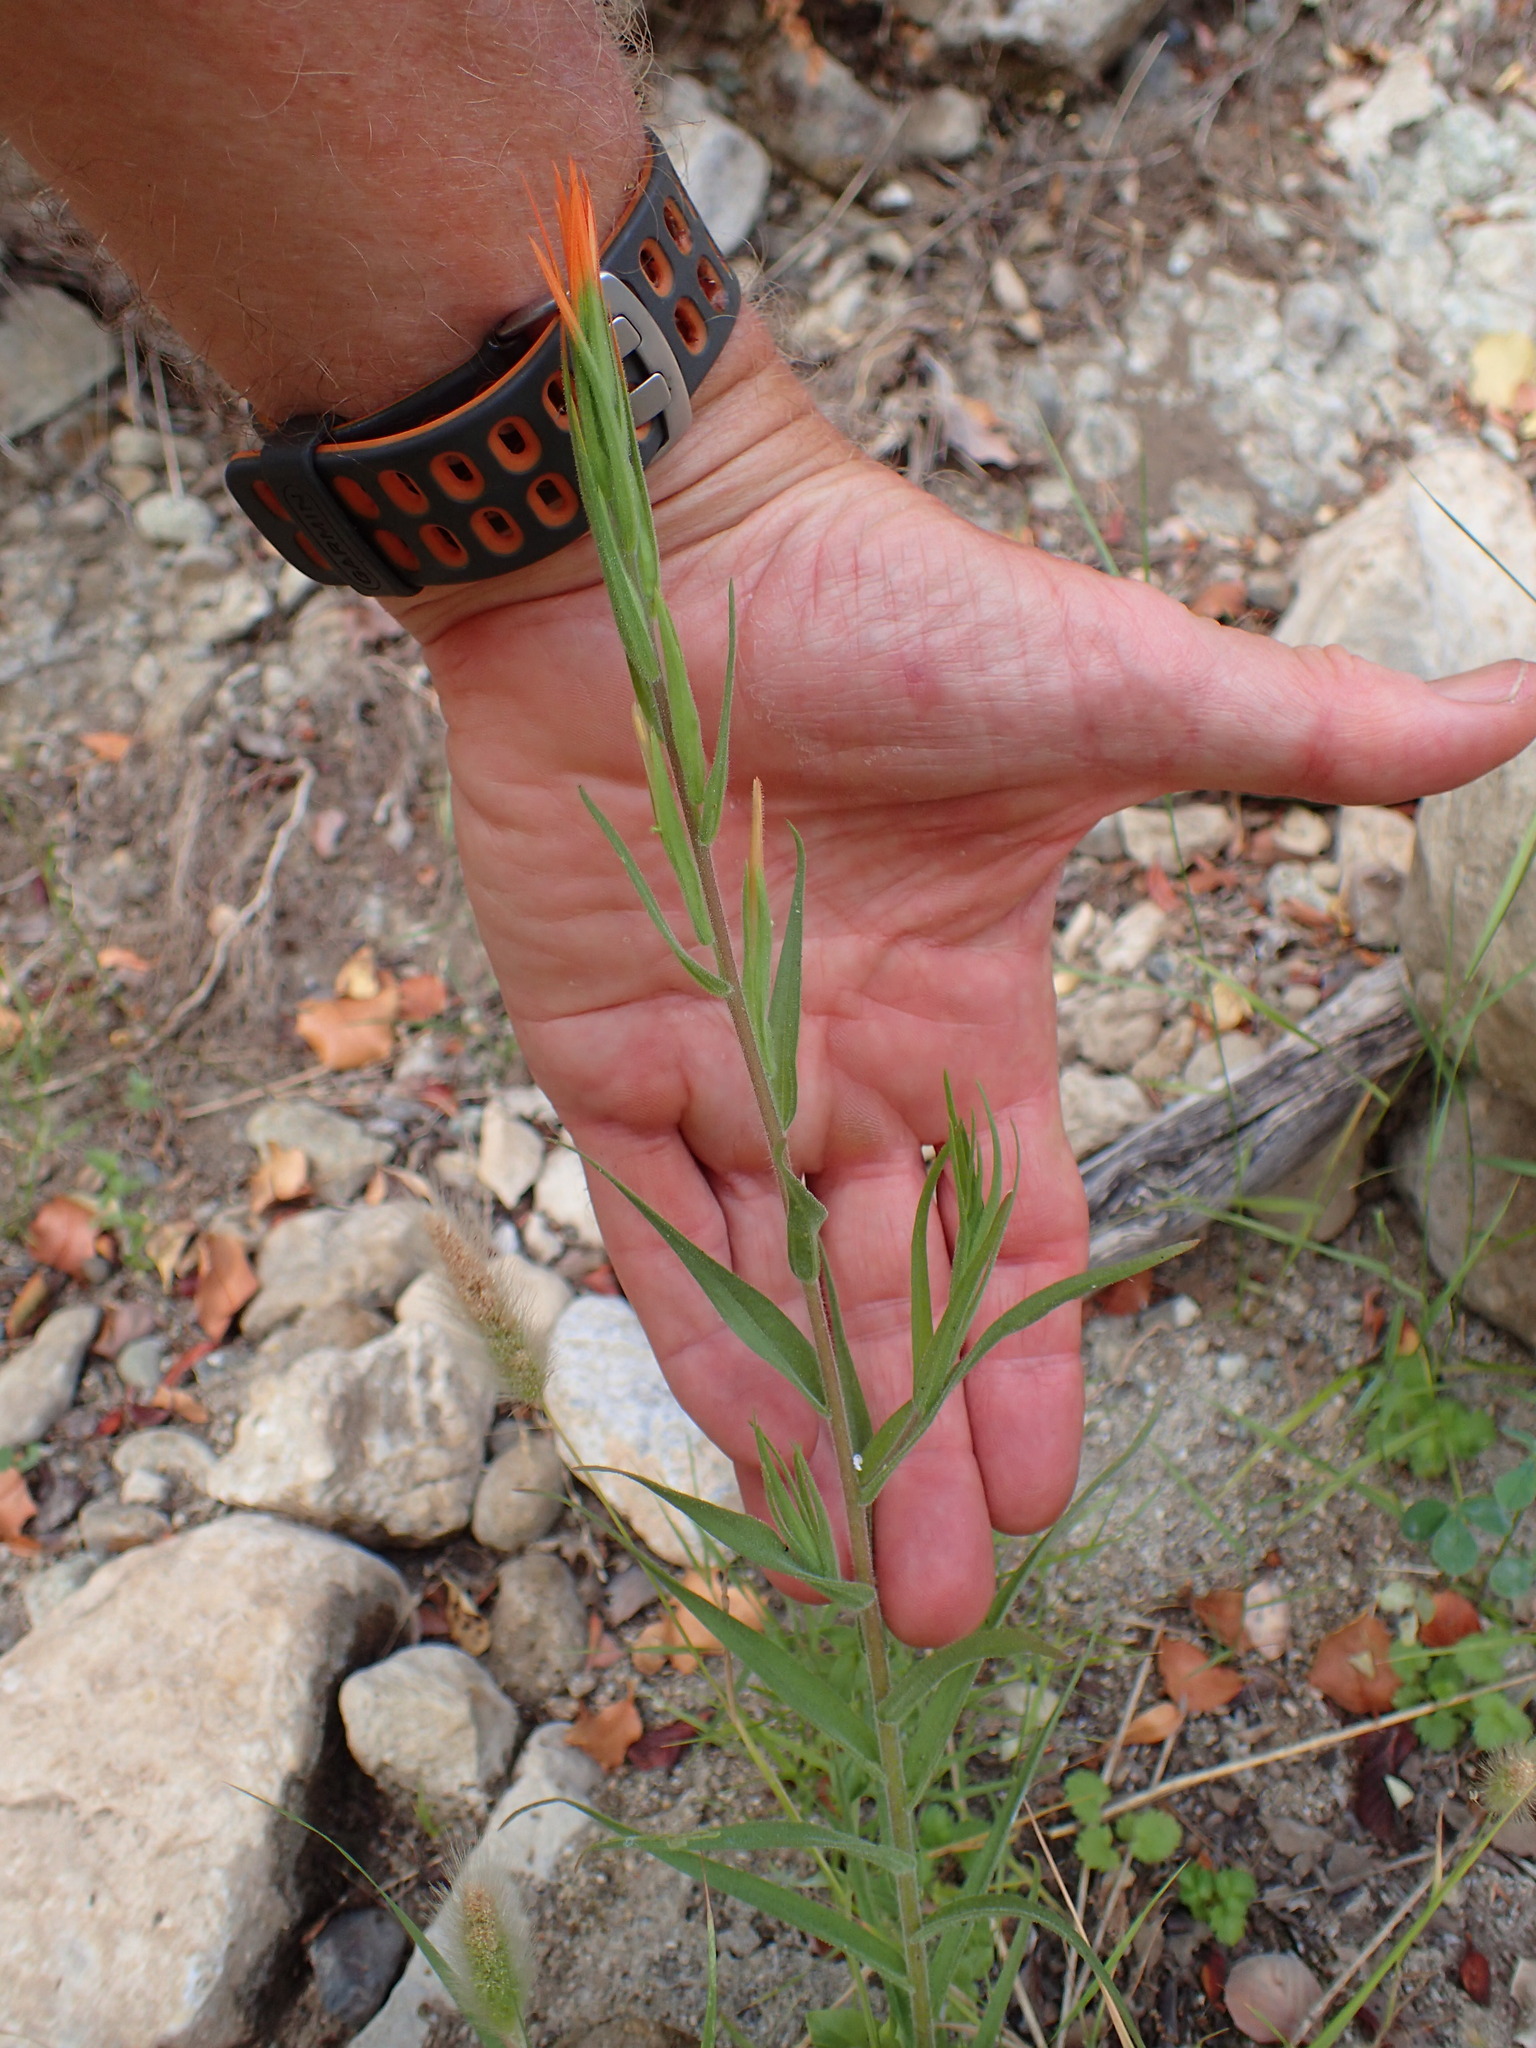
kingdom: Plantae
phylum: Tracheophyta
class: Magnoliopsida
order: Lamiales
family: Orobanchaceae
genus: Castilleja
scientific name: Castilleja minor
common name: Seep paintbrush
